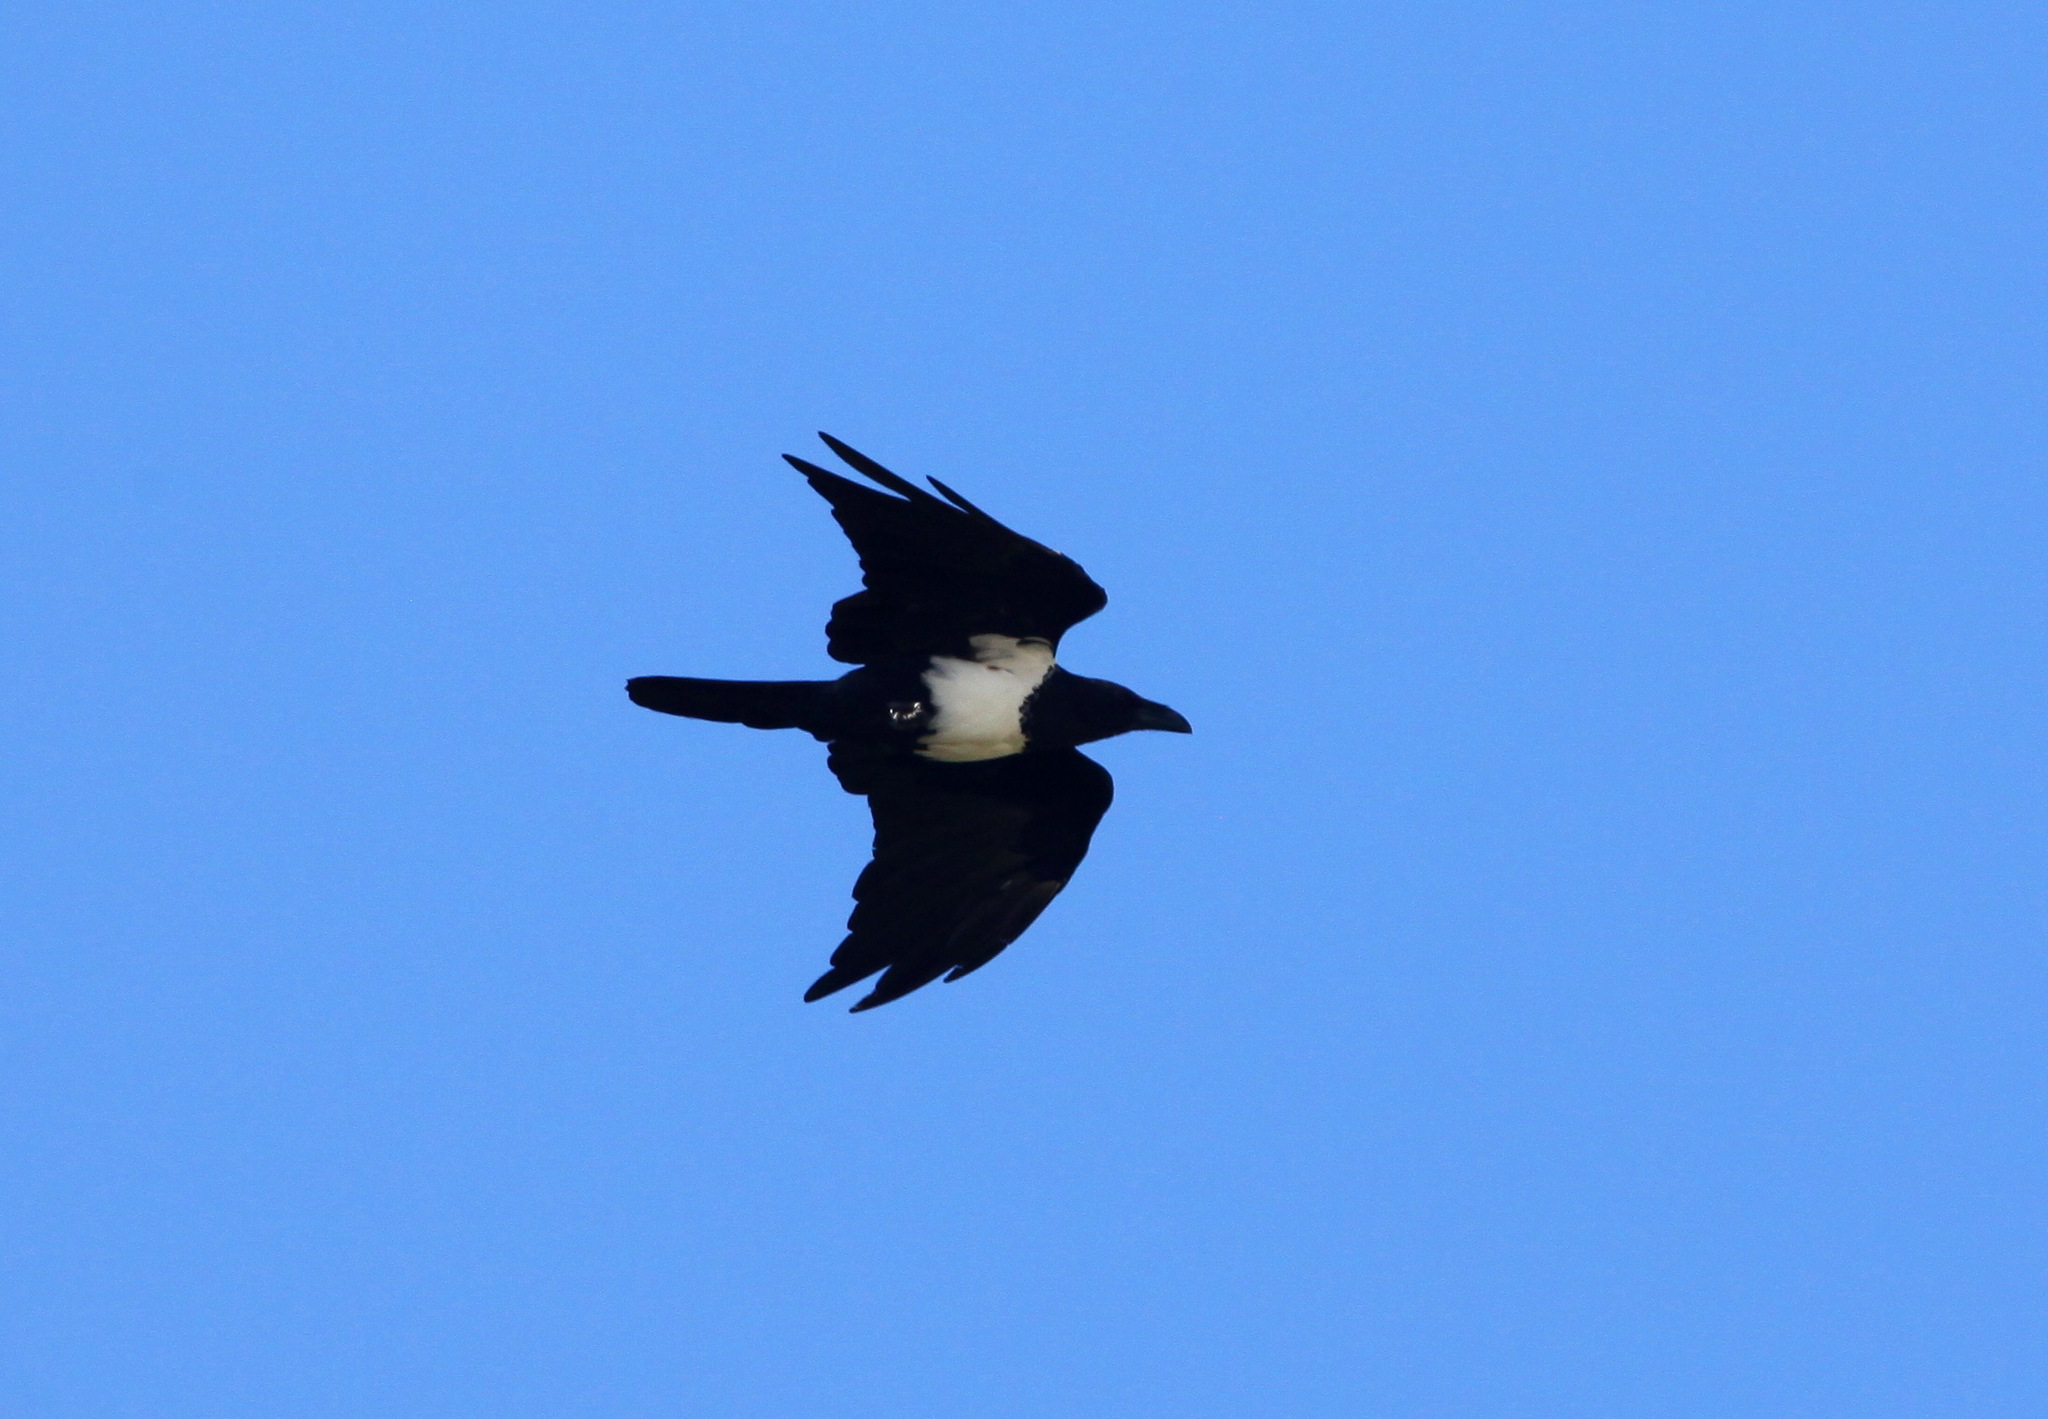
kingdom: Animalia
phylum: Chordata
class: Aves
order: Passeriformes
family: Corvidae
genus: Corvus
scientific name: Corvus albus
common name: Pied crow
